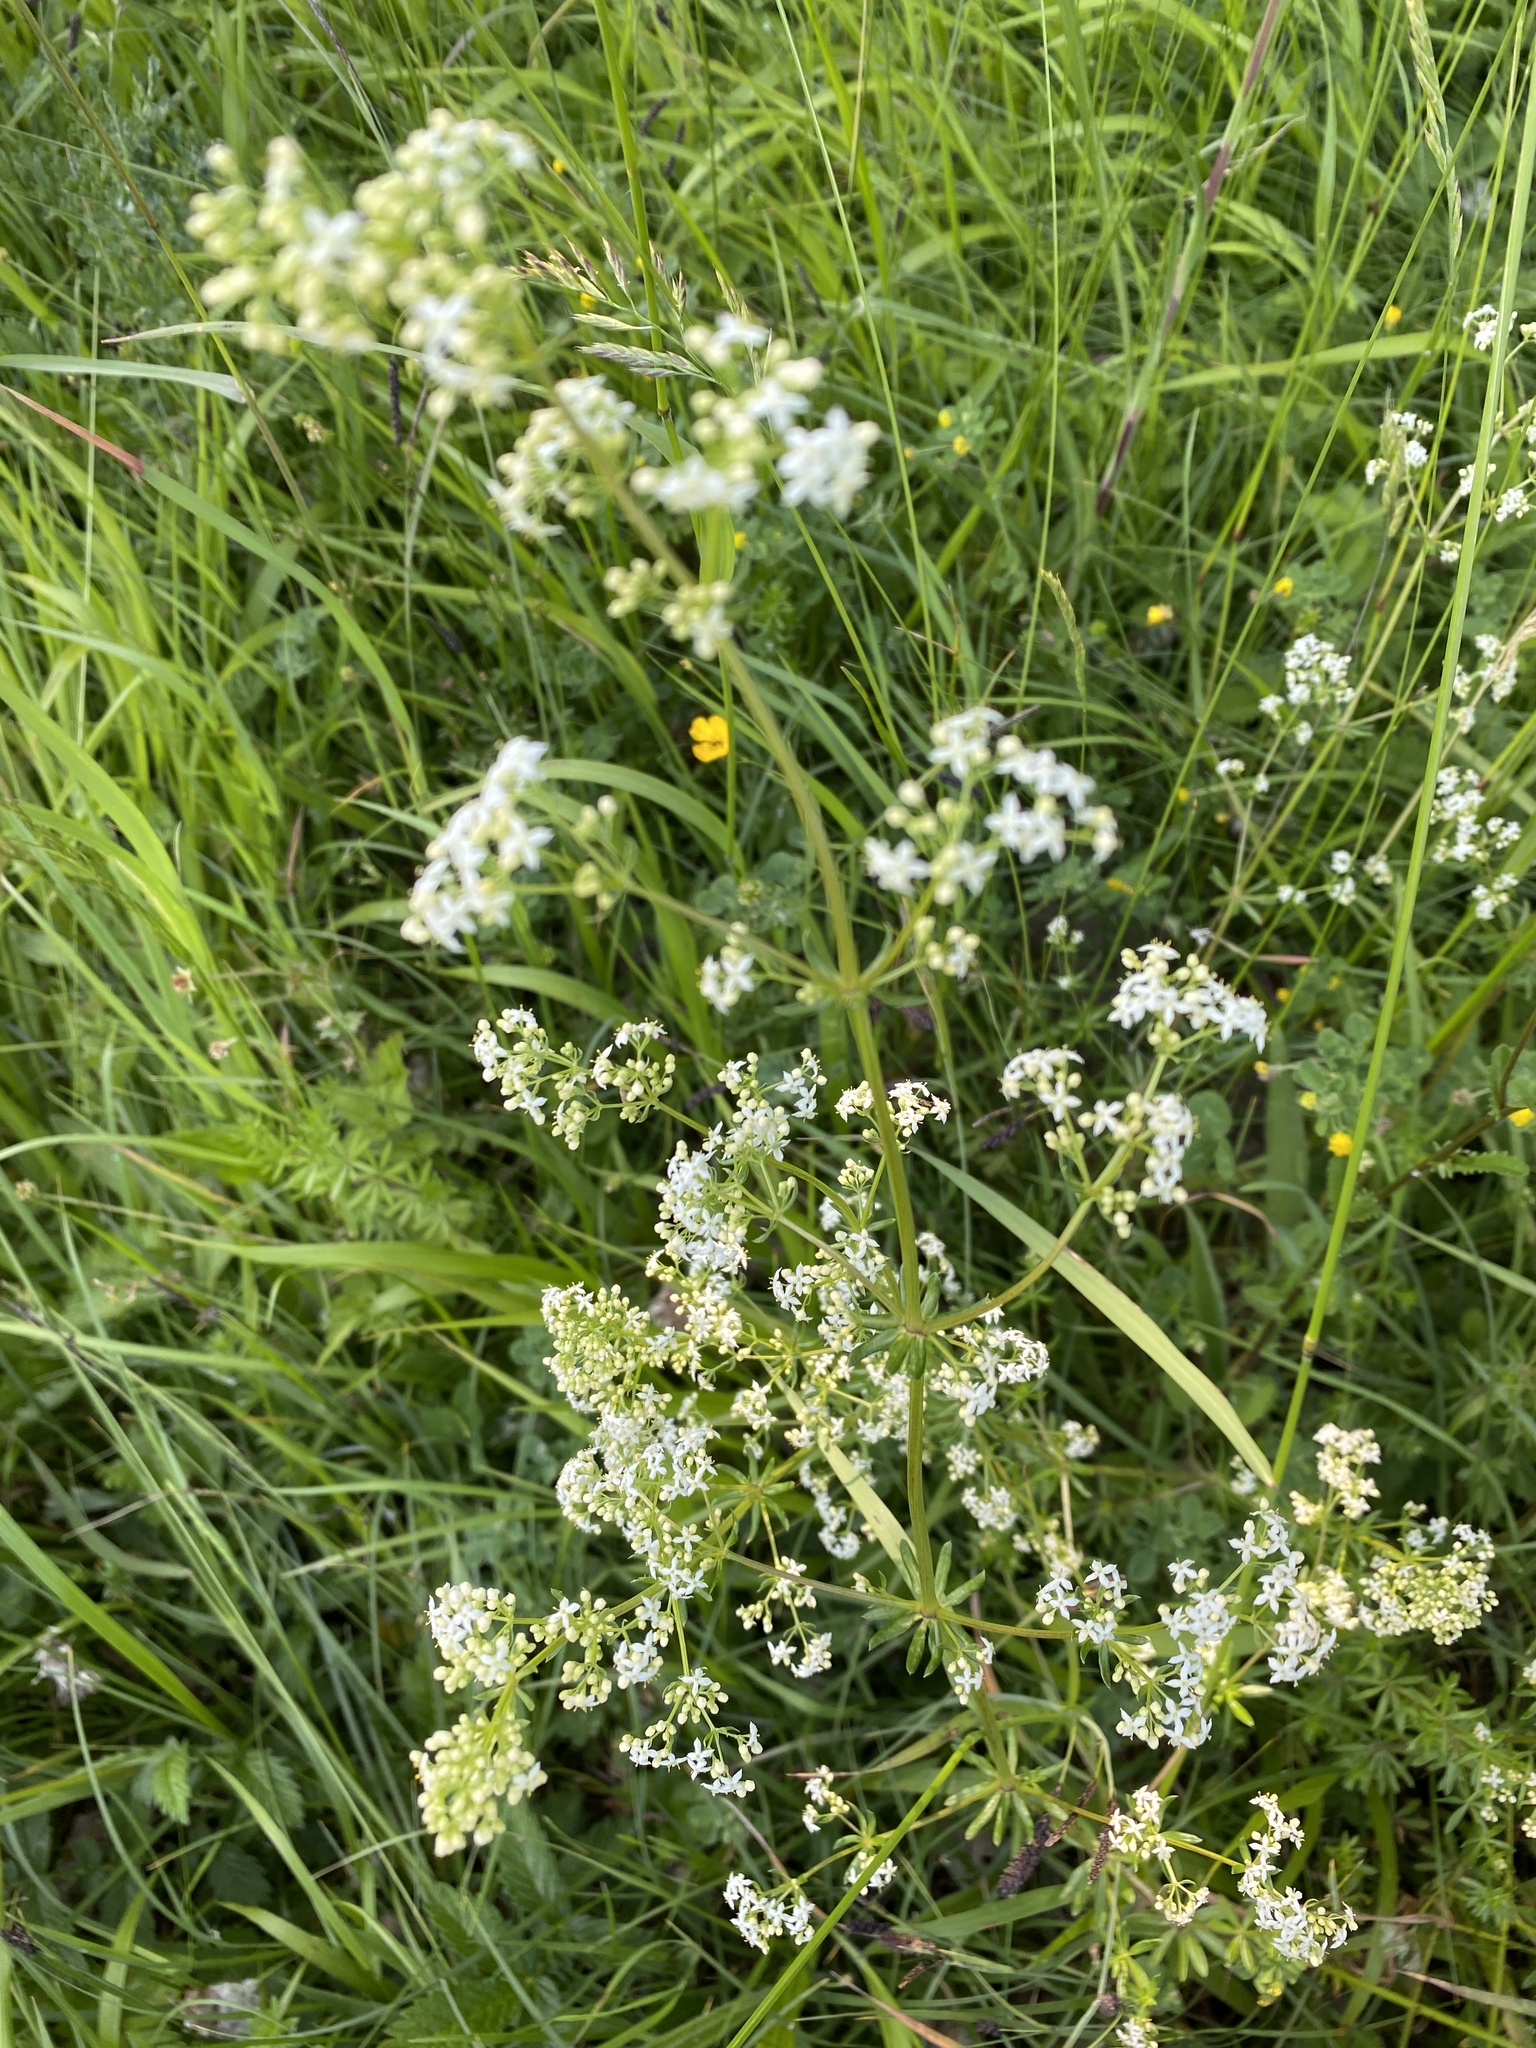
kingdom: Plantae
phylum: Tracheophyta
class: Magnoliopsida
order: Gentianales
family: Rubiaceae
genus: Galium
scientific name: Galium mollugo
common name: Hedge bedstraw
